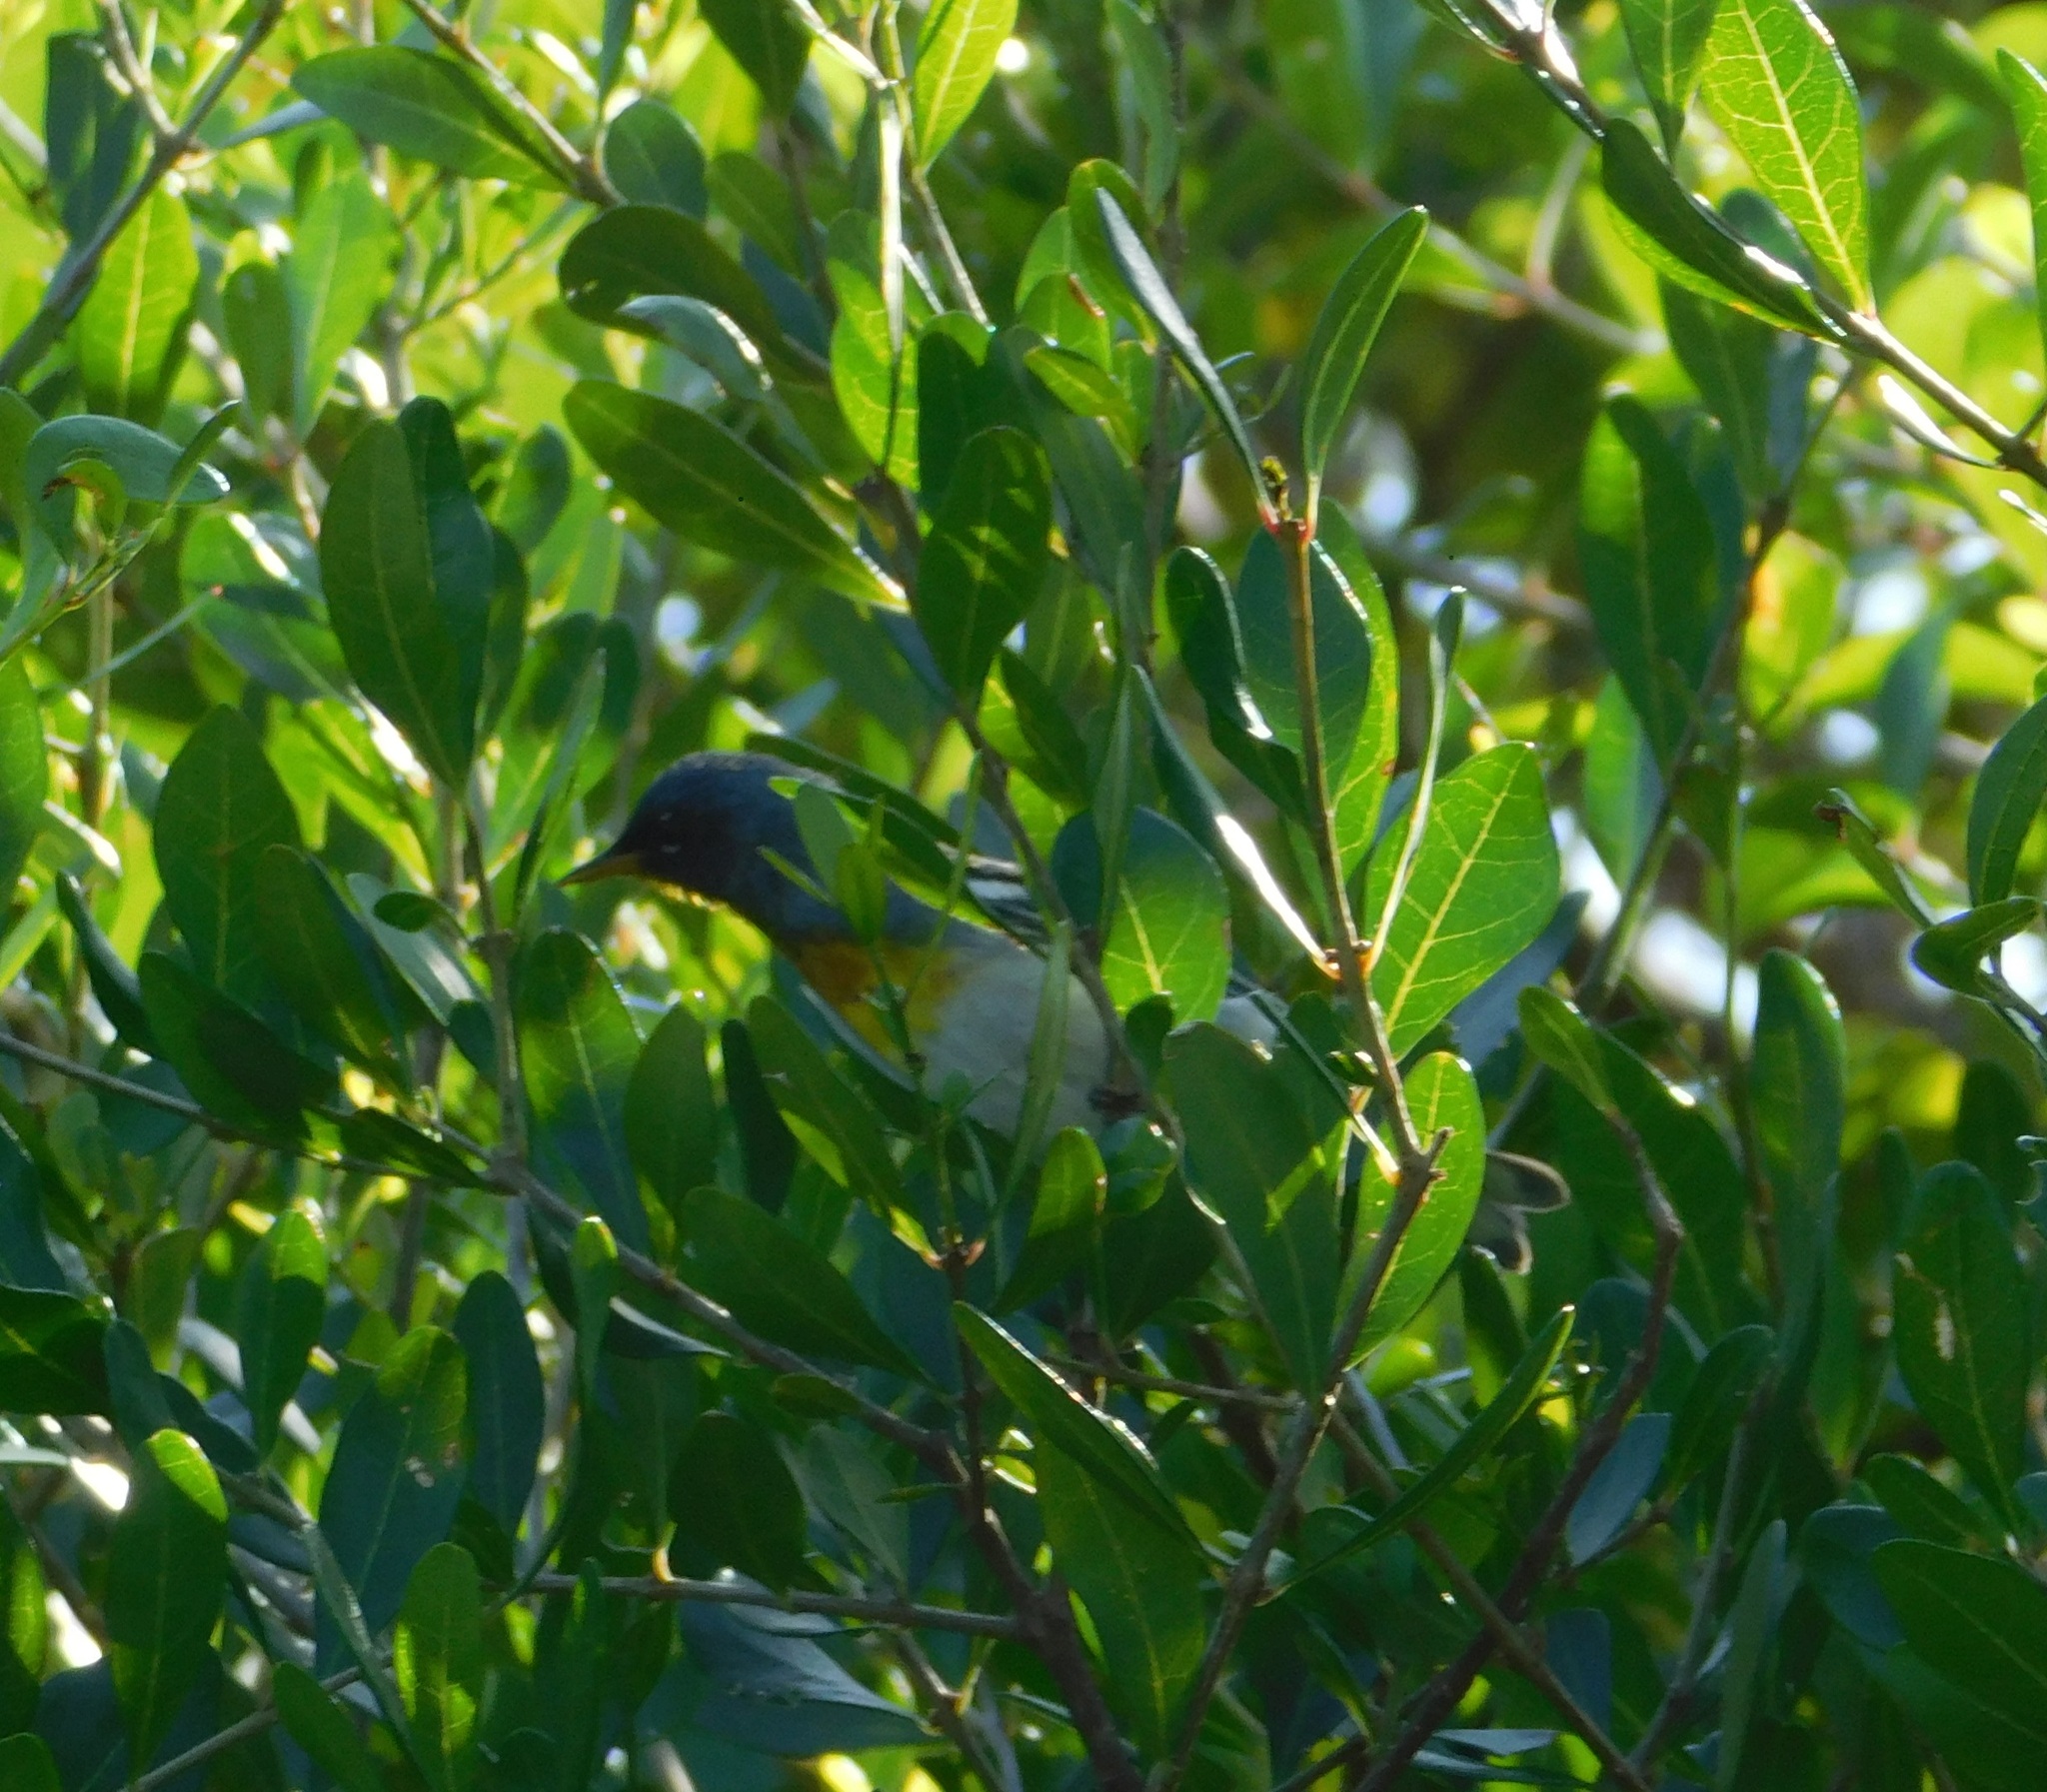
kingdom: Animalia
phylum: Chordata
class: Aves
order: Passeriformes
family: Parulidae
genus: Setophaga
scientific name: Setophaga americana
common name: Northern parula
